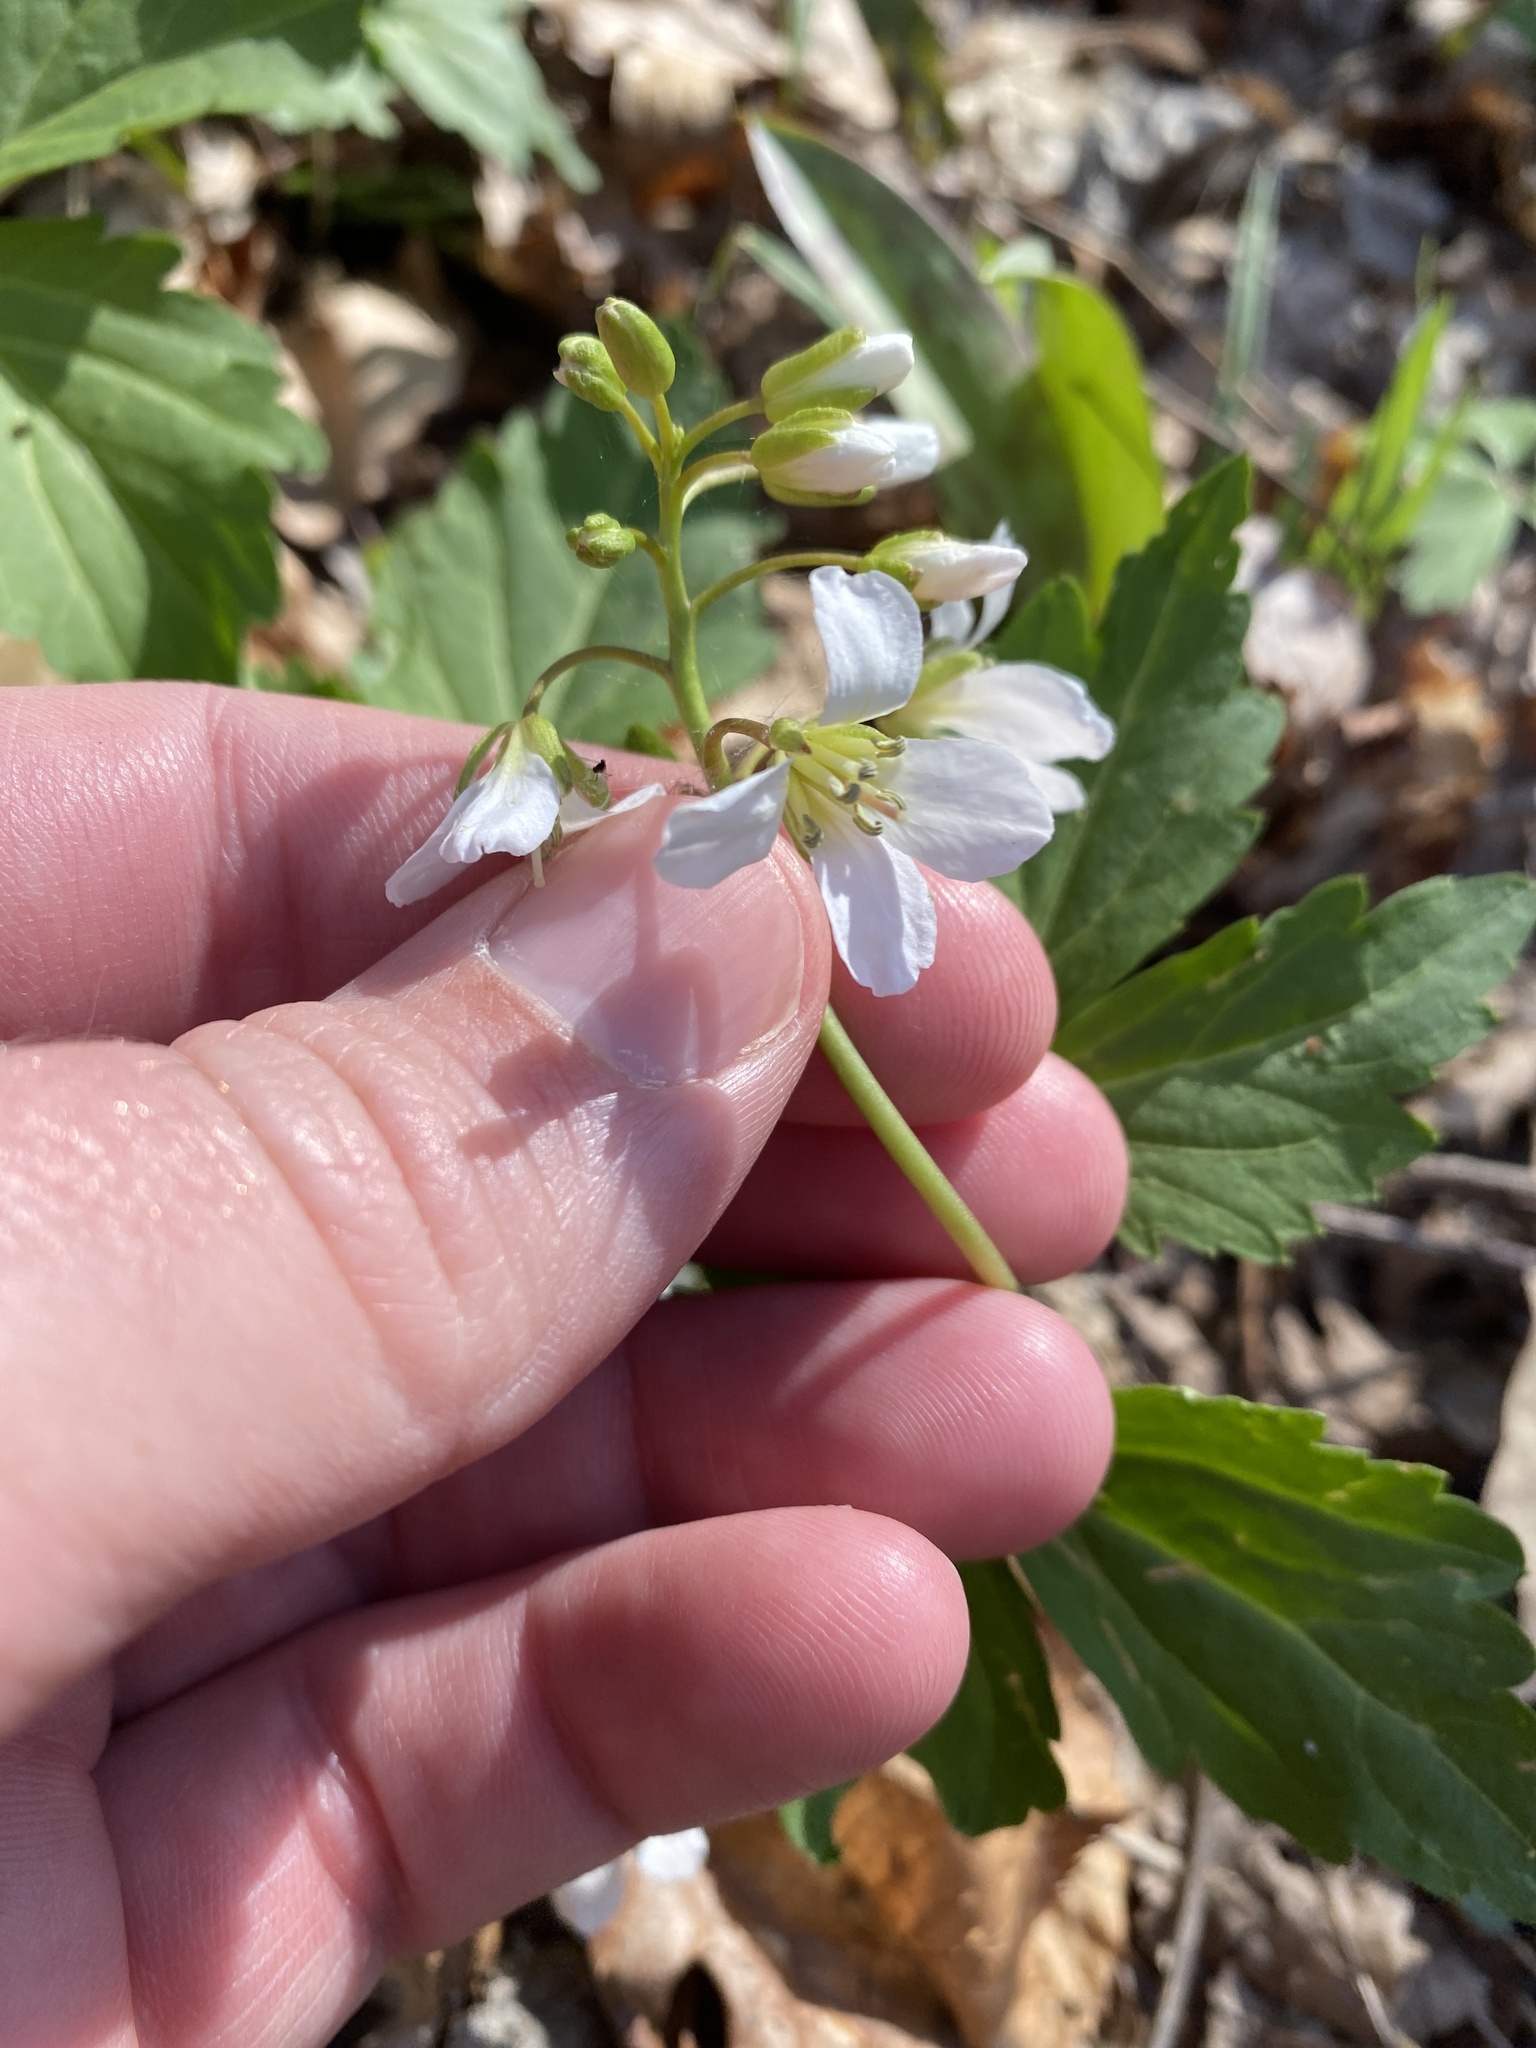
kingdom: Plantae
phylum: Tracheophyta
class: Magnoliopsida
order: Brassicales
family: Brassicaceae
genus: Cardamine
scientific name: Cardamine diphylla
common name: Broad-leaved toothwort
